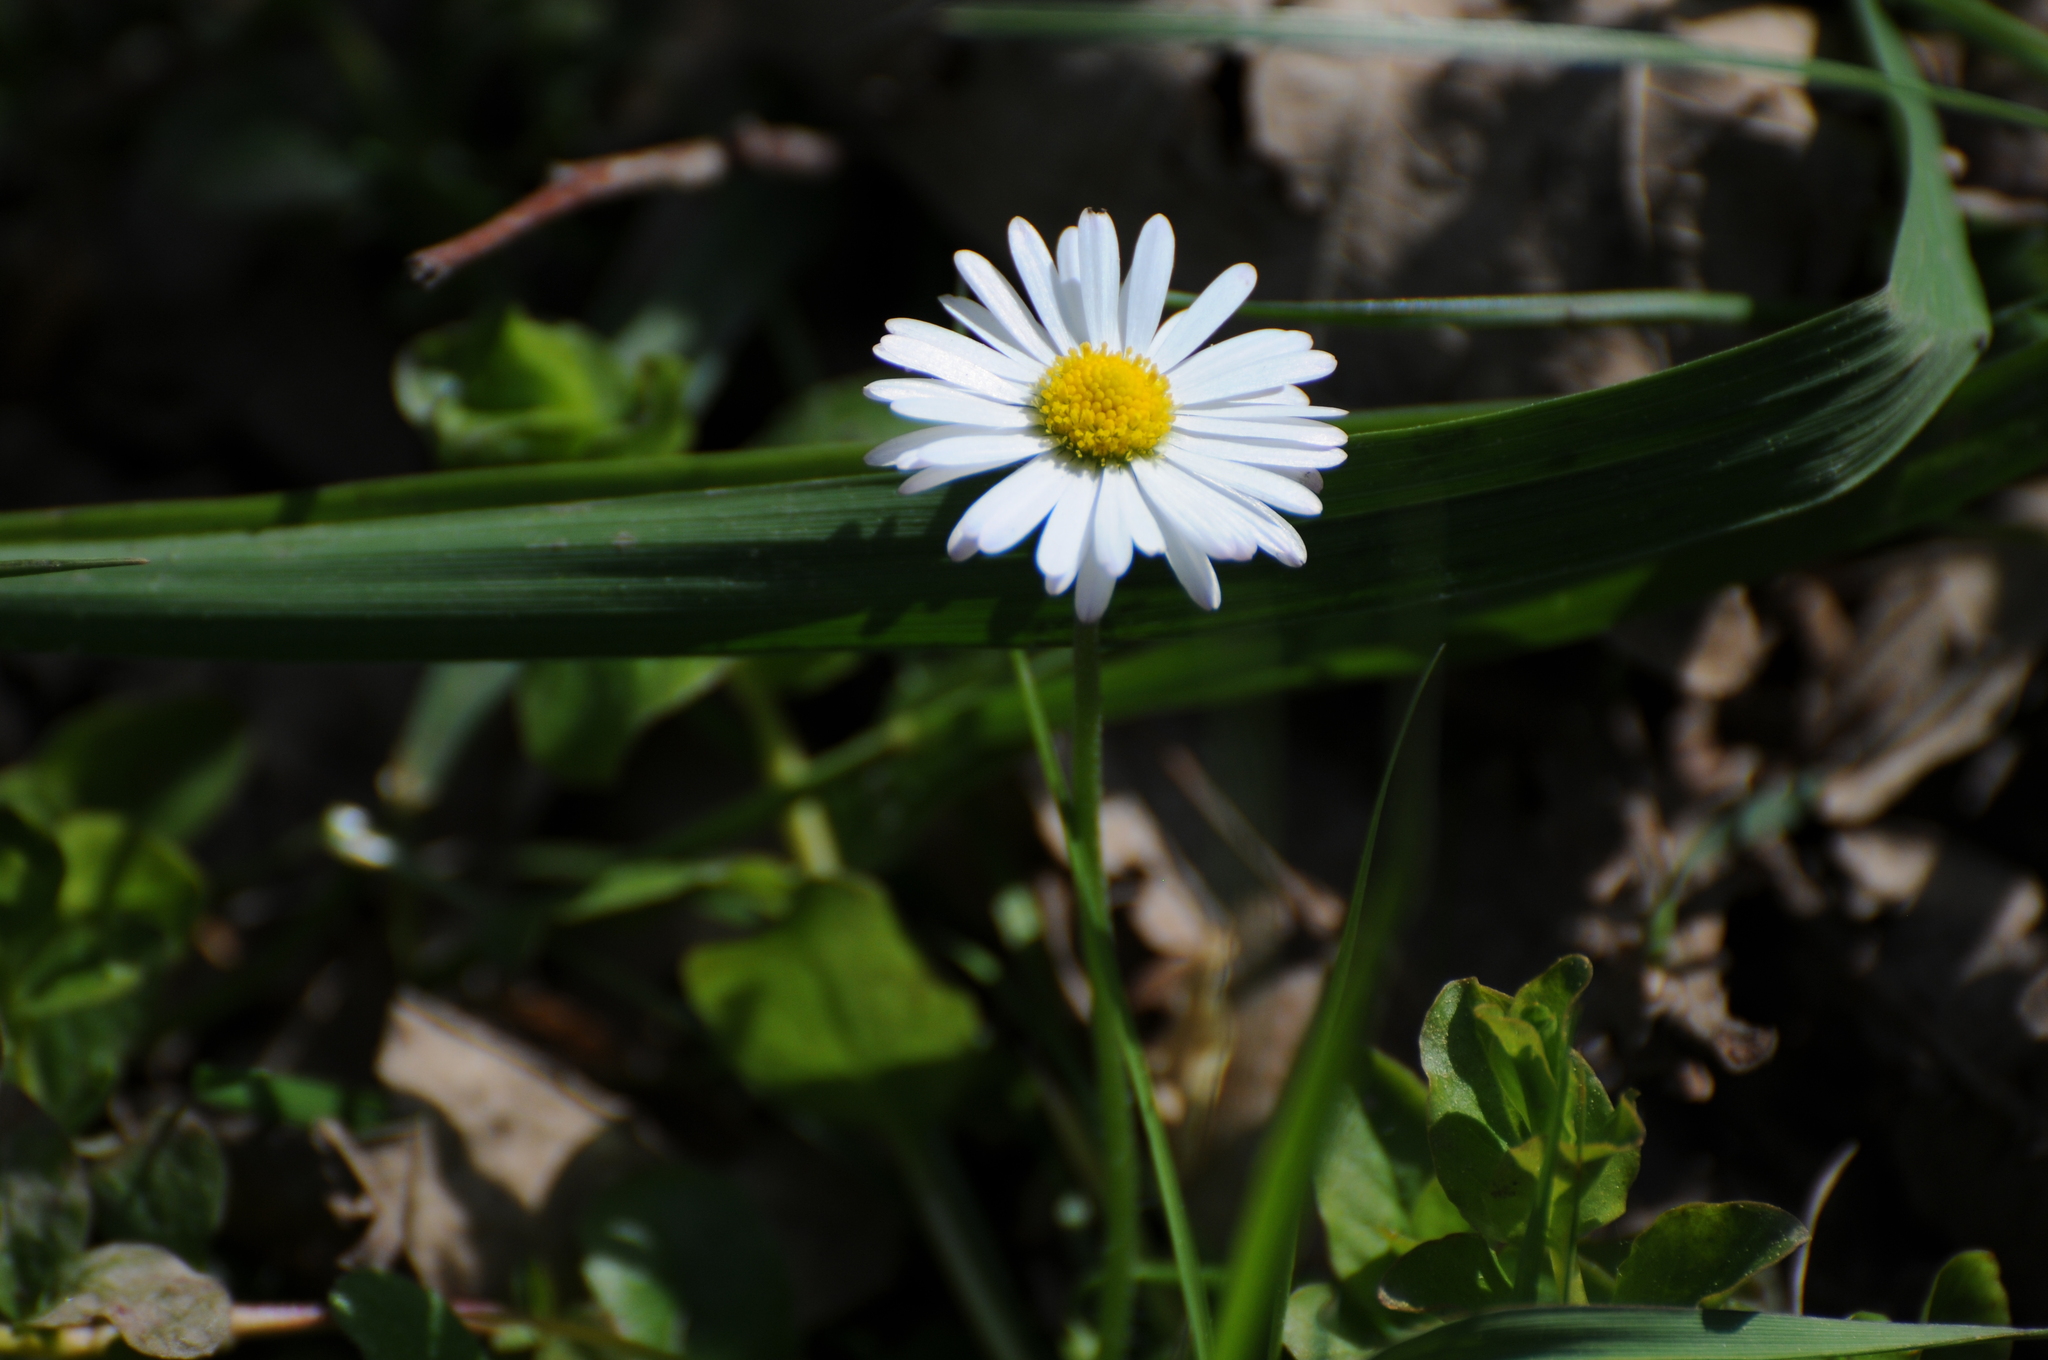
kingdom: Plantae
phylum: Tracheophyta
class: Magnoliopsida
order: Asterales
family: Asteraceae
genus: Bellis
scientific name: Bellis perennis
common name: Lawndaisy
